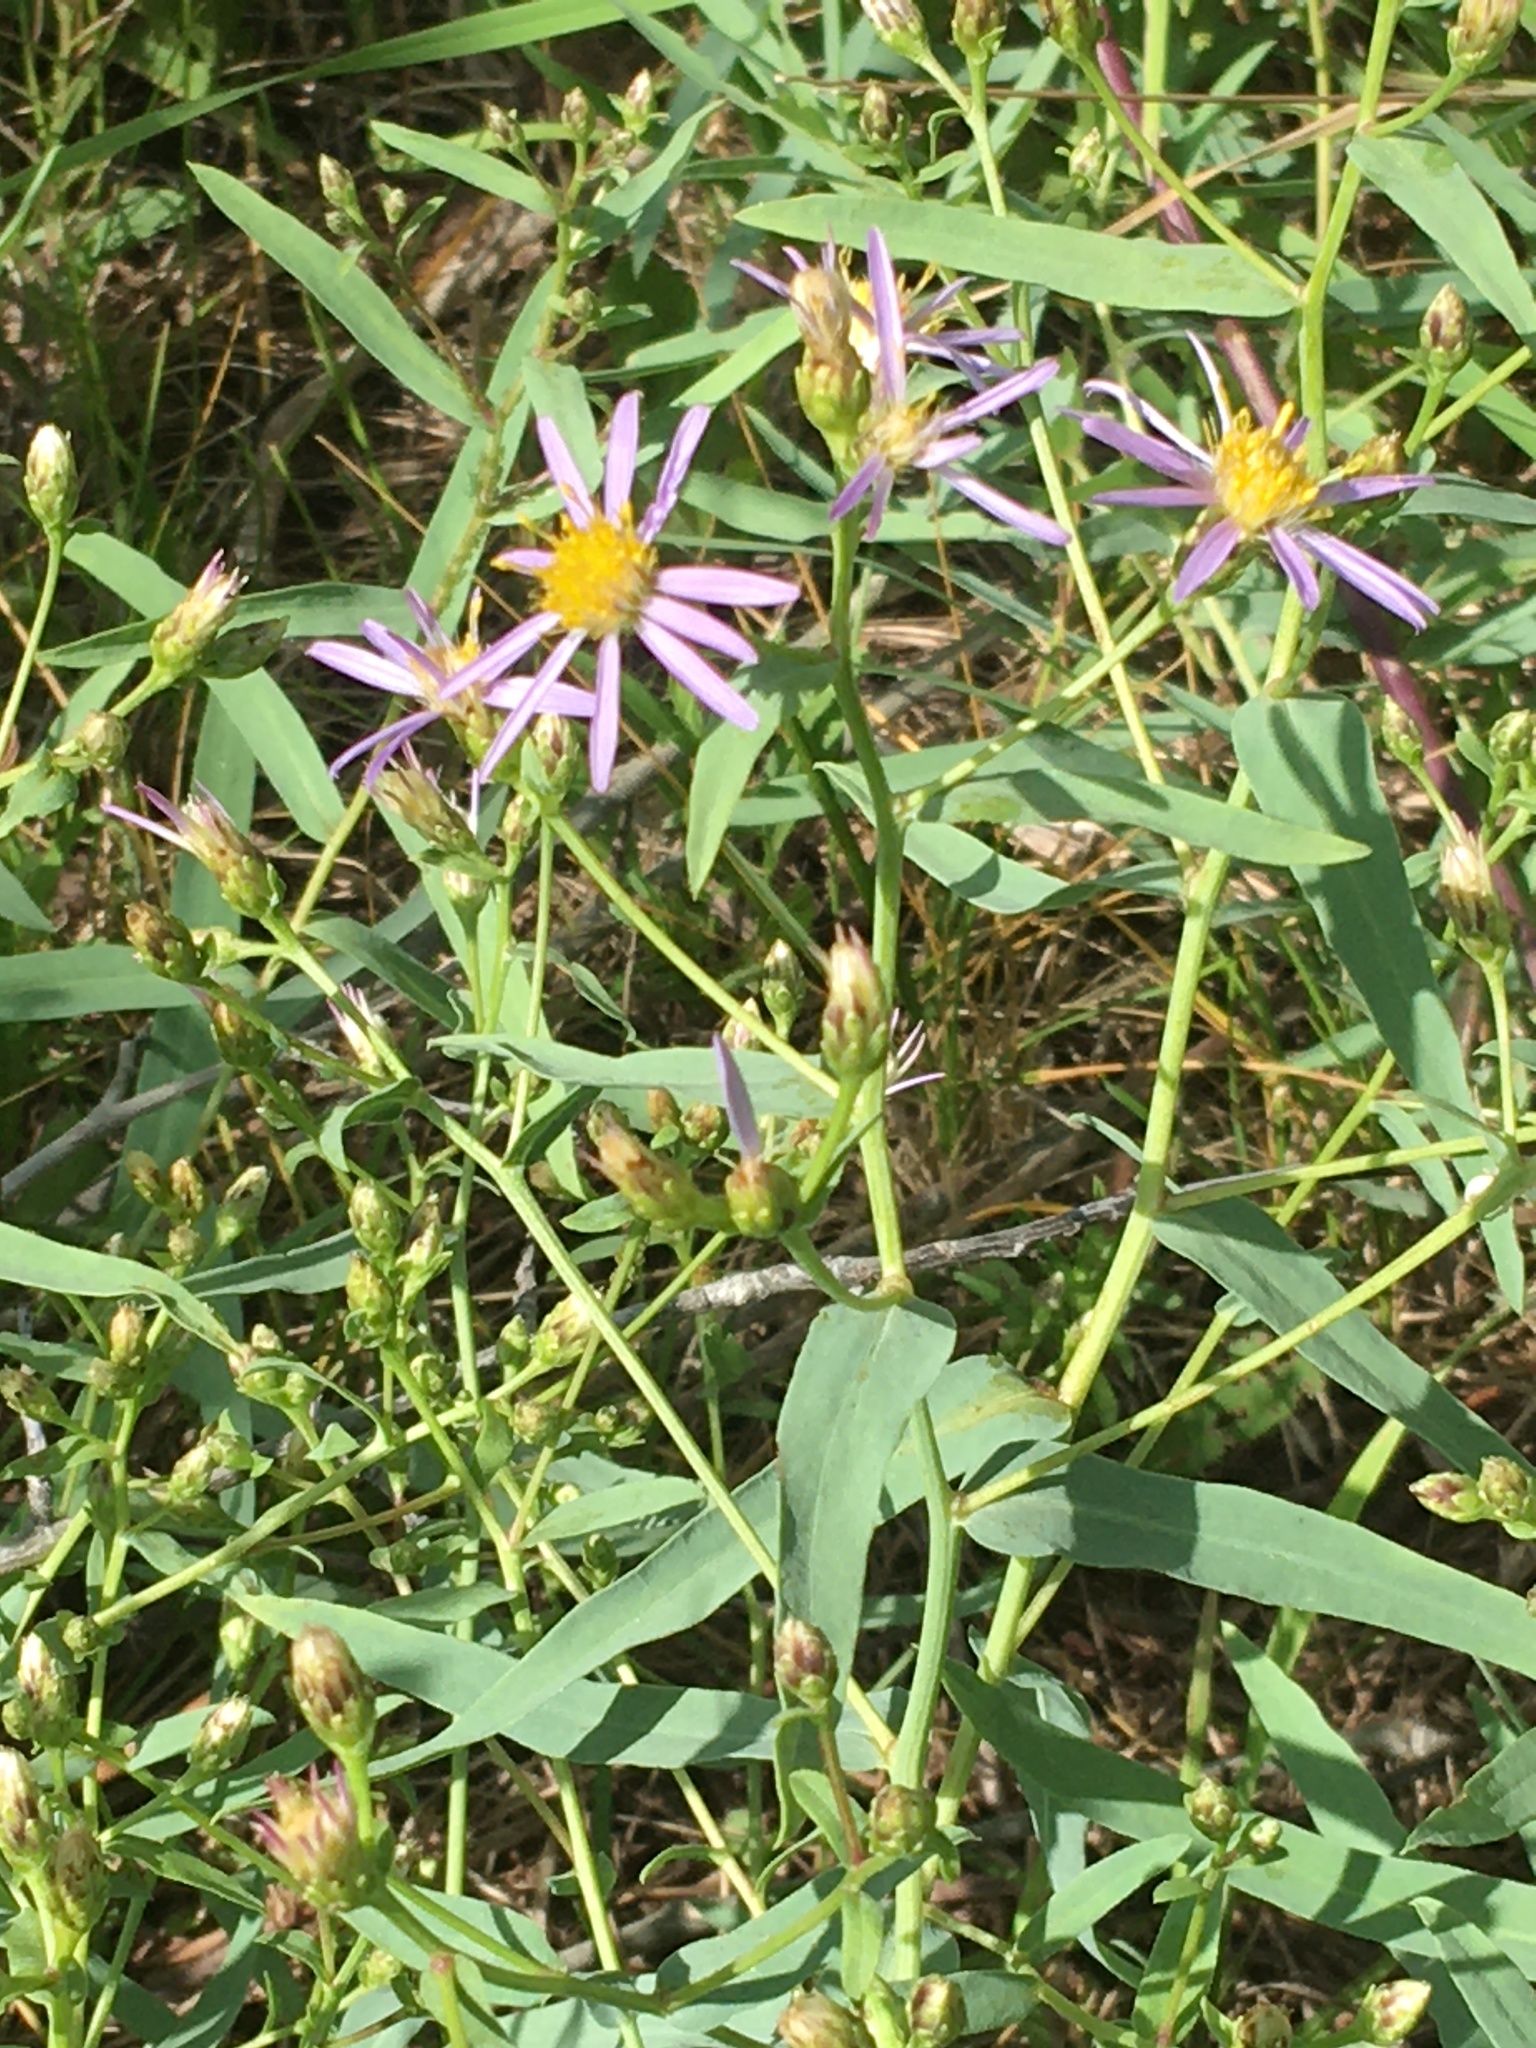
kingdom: Plantae
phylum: Tracheophyta
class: Magnoliopsida
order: Asterales
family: Asteraceae
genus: Eucephalus
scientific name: Eucephalus engelmannii
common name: Engelmann's aster
